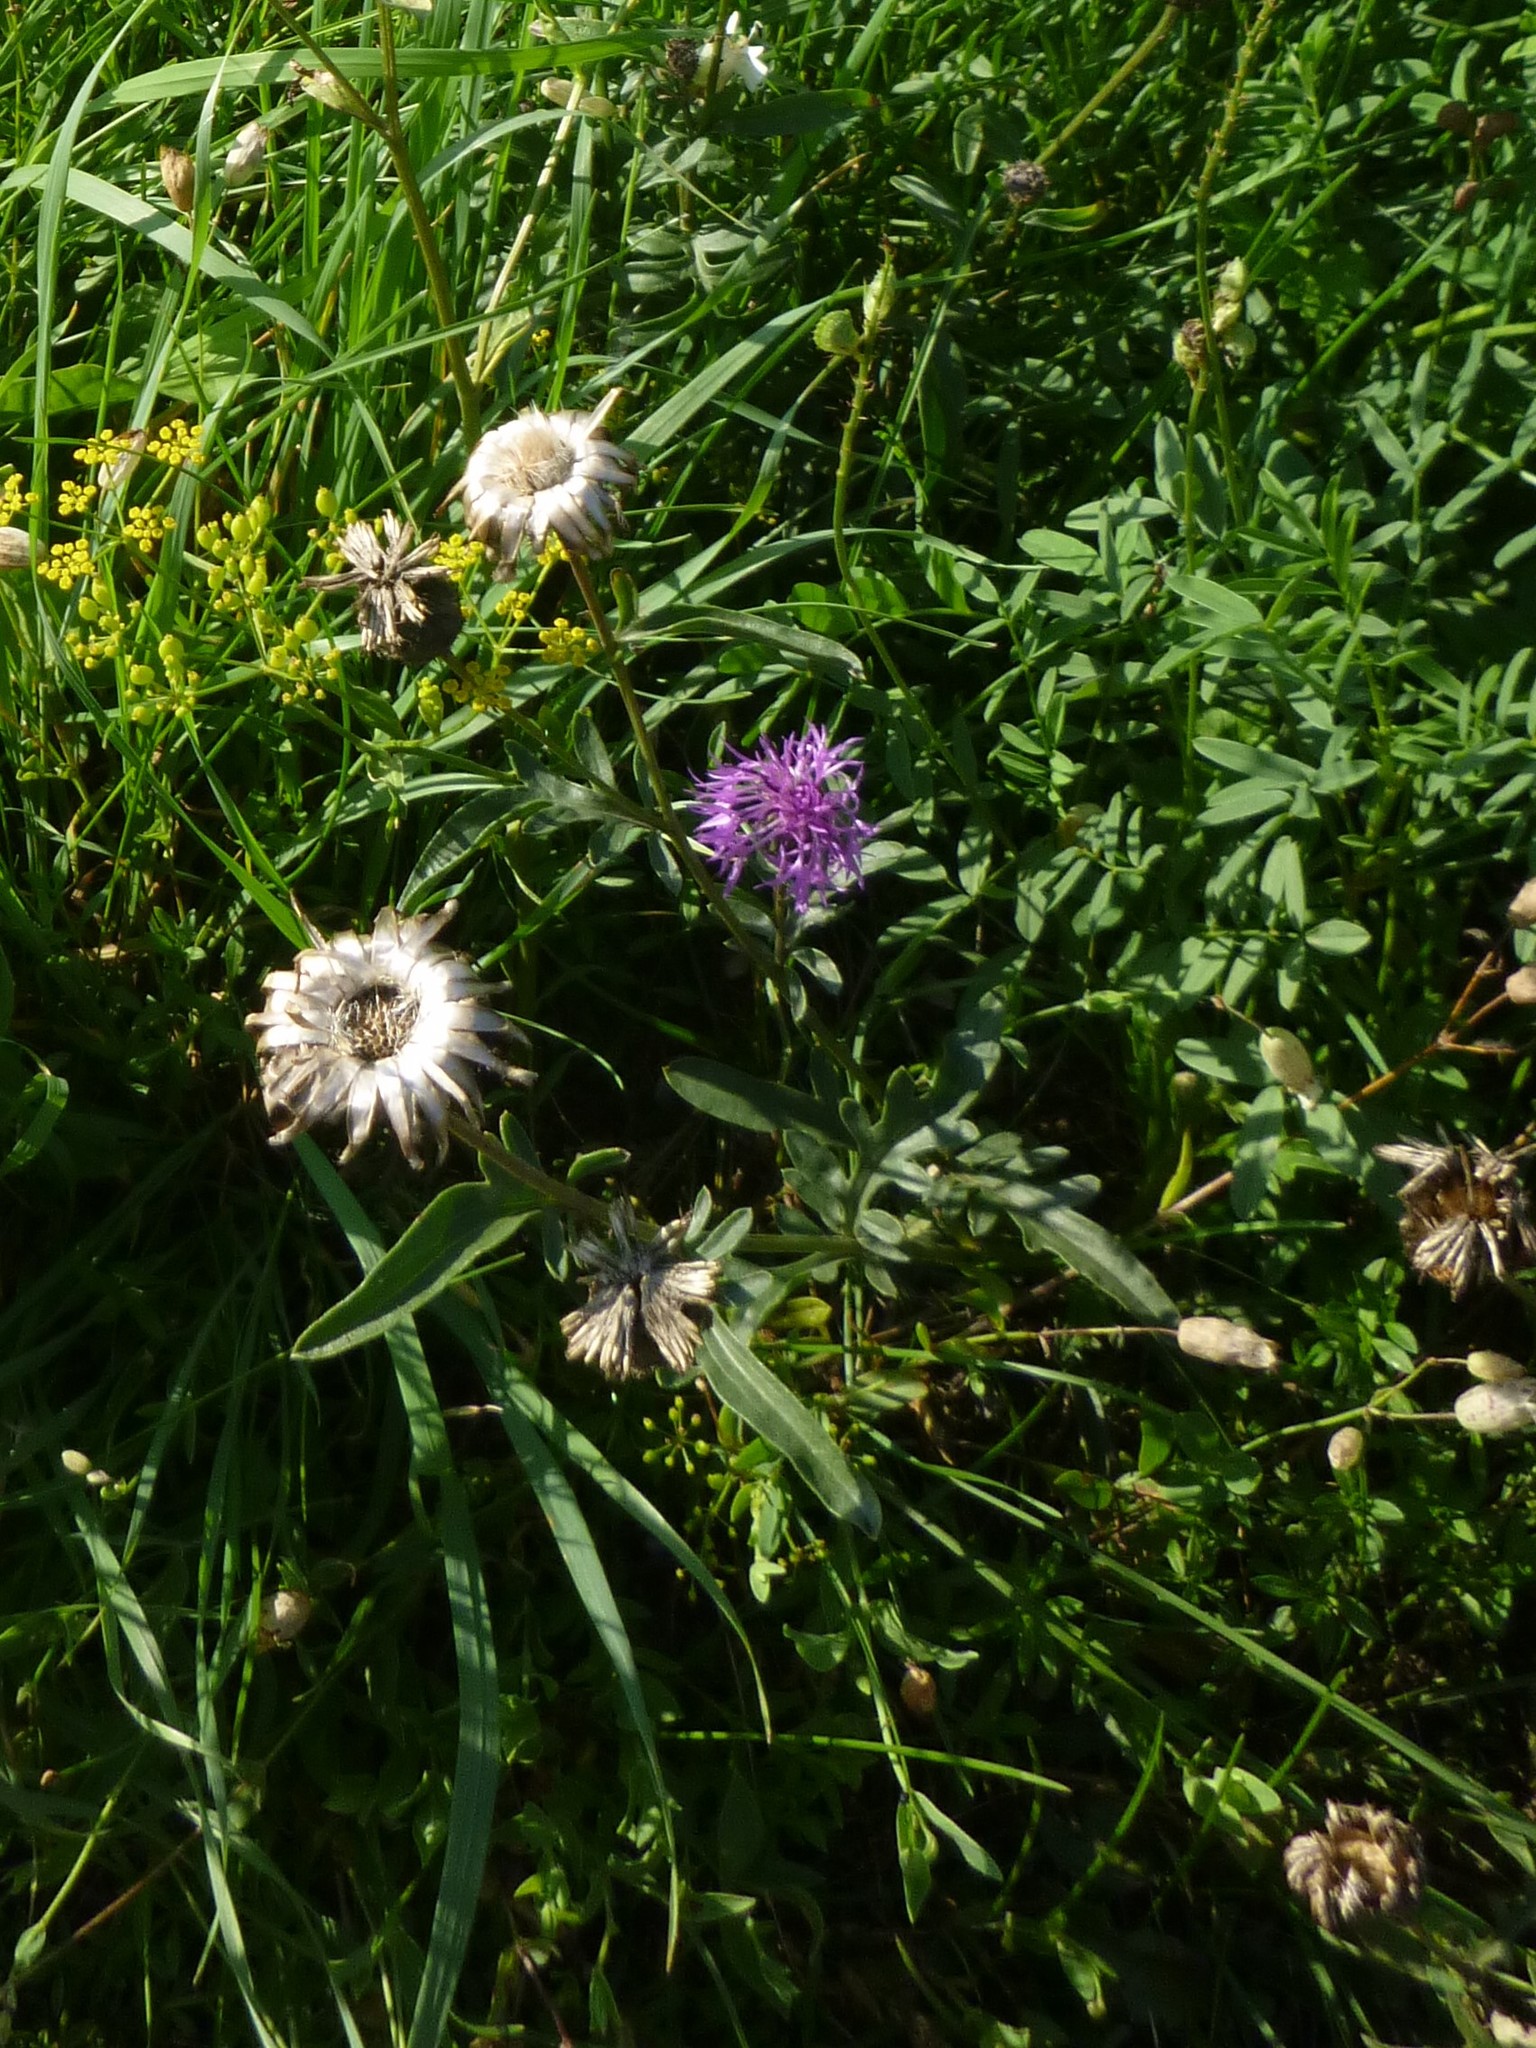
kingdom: Plantae
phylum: Tracheophyta
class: Magnoliopsida
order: Asterales
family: Asteraceae
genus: Centaurea
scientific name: Centaurea scabiosa
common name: Greater knapweed
